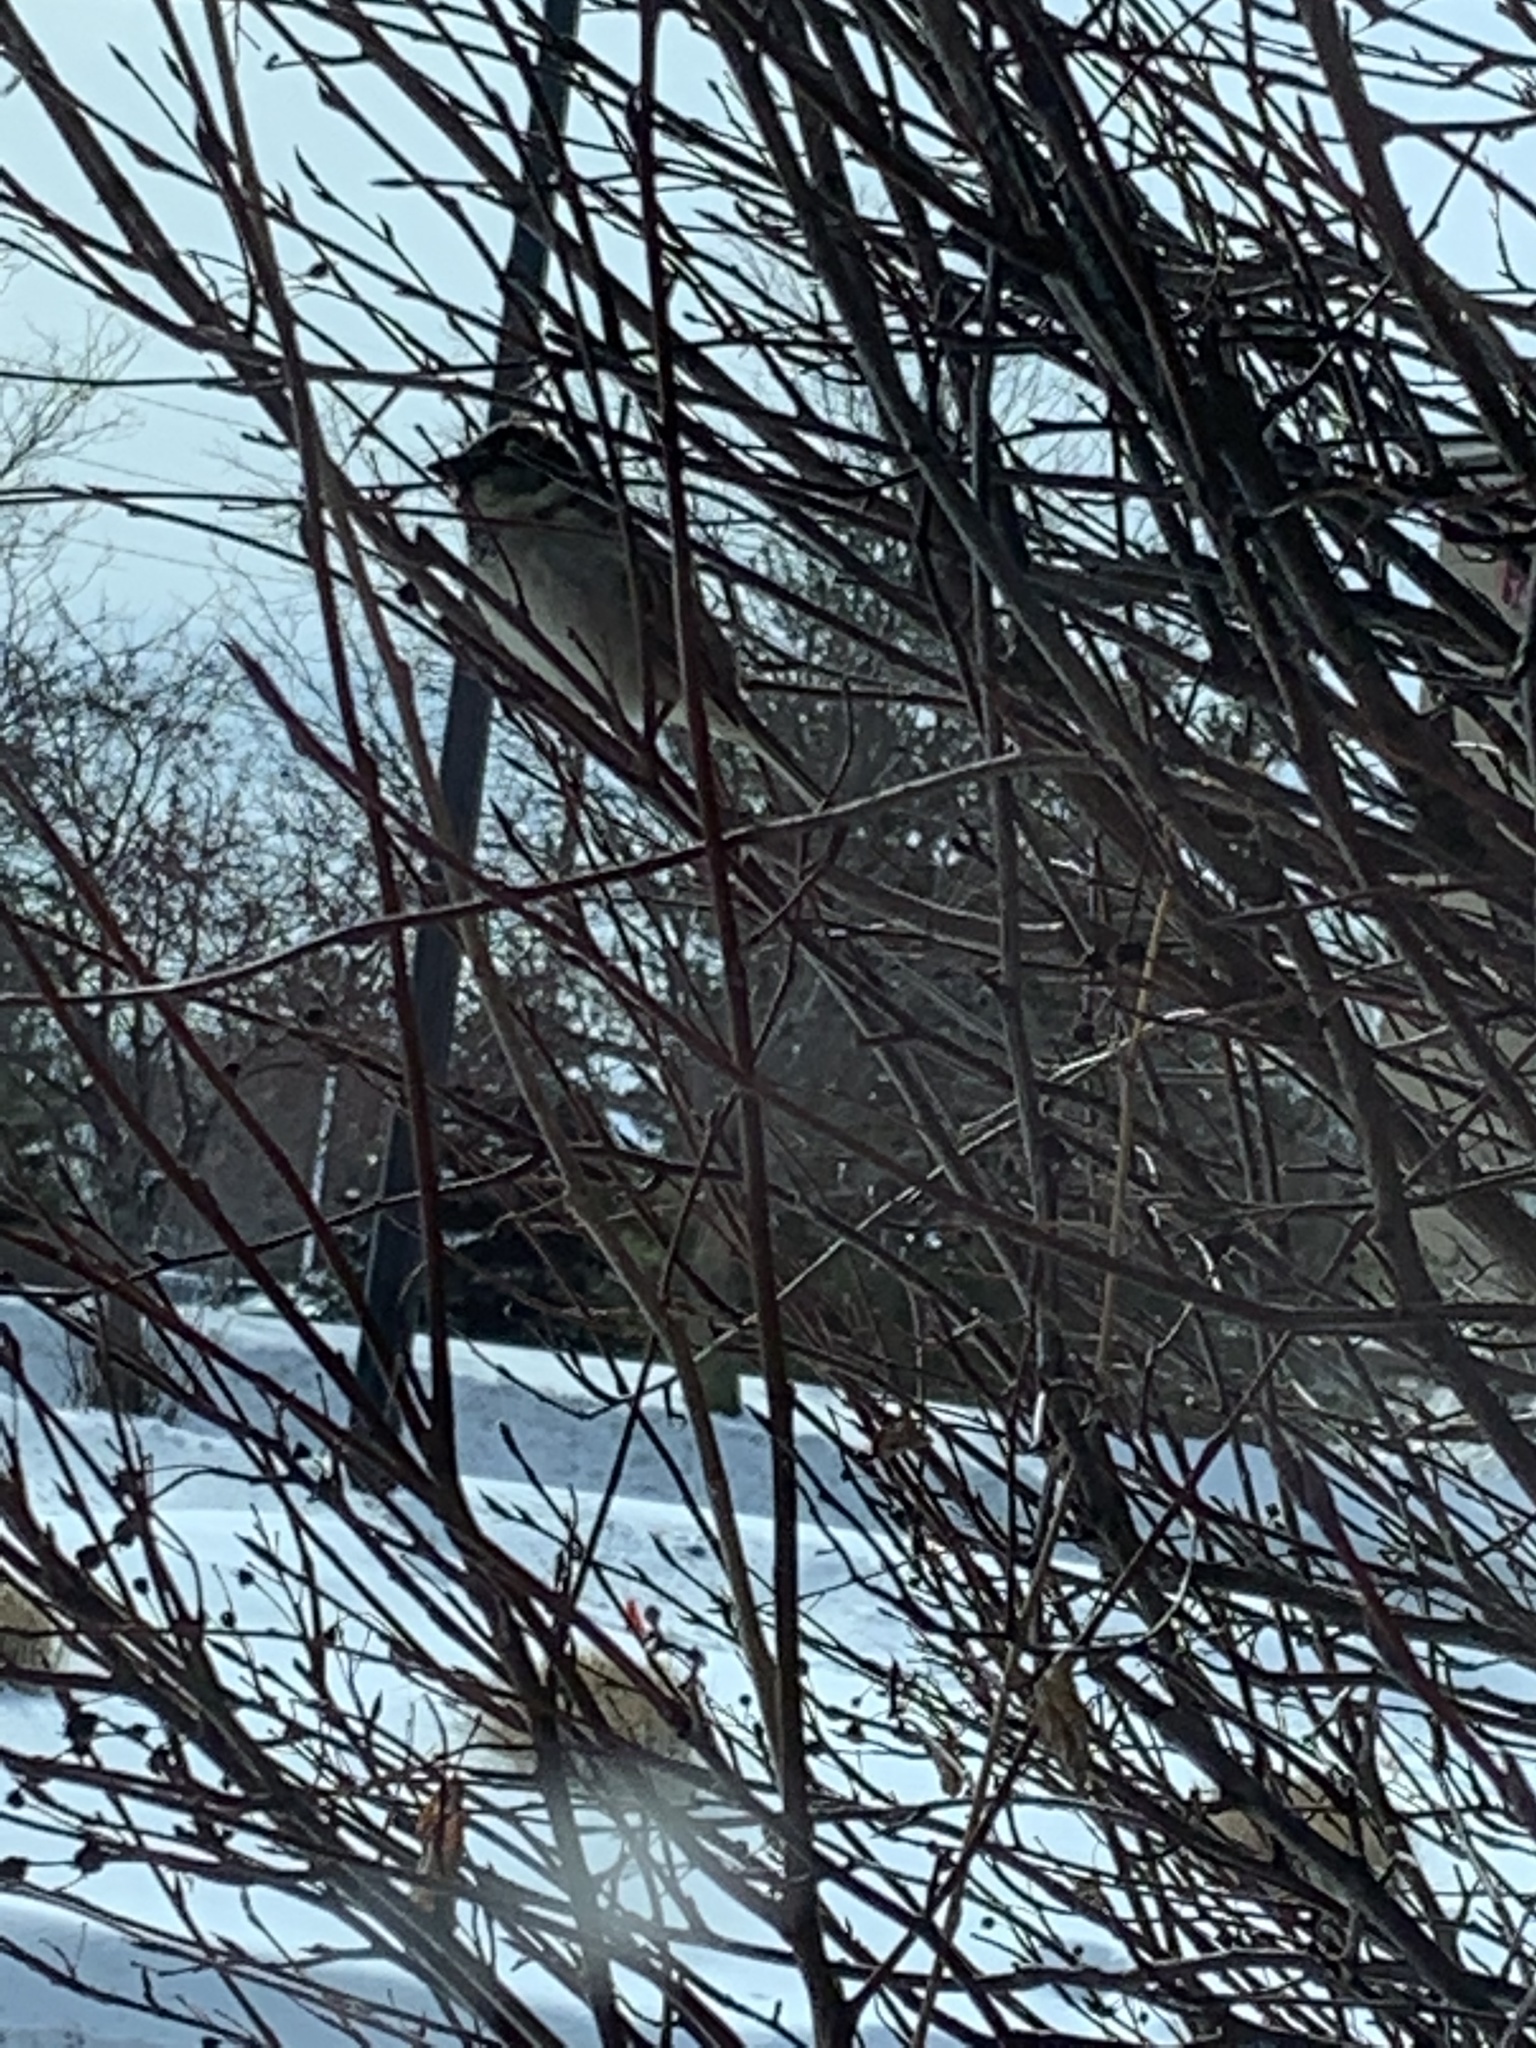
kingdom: Animalia
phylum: Chordata
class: Aves
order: Passeriformes
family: Passeridae
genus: Passer
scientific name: Passer domesticus
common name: House sparrow
